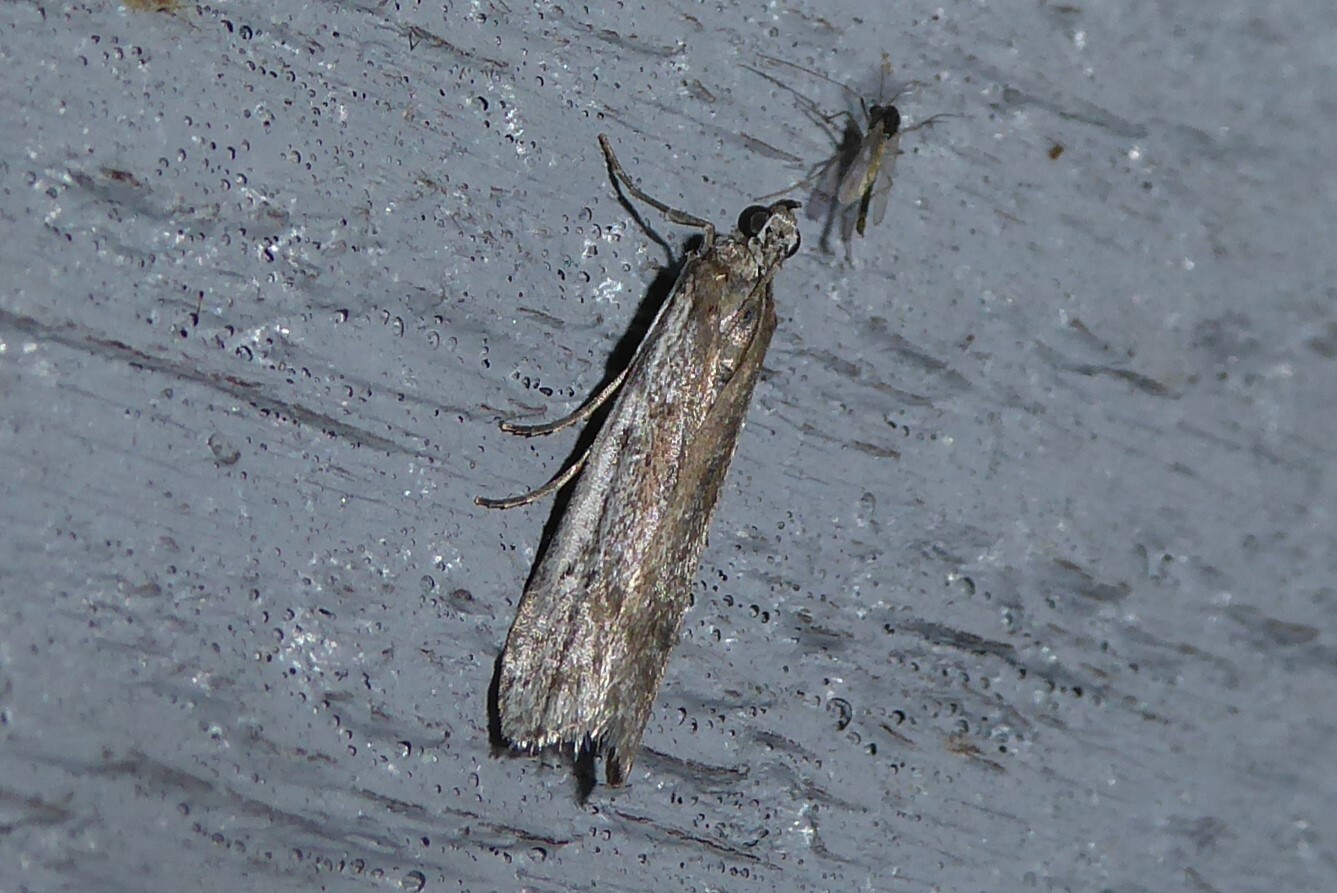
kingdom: Animalia
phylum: Arthropoda
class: Insecta
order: Lepidoptera
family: Pyralidae
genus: Patagoniodes
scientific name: Patagoniodes farinaria
